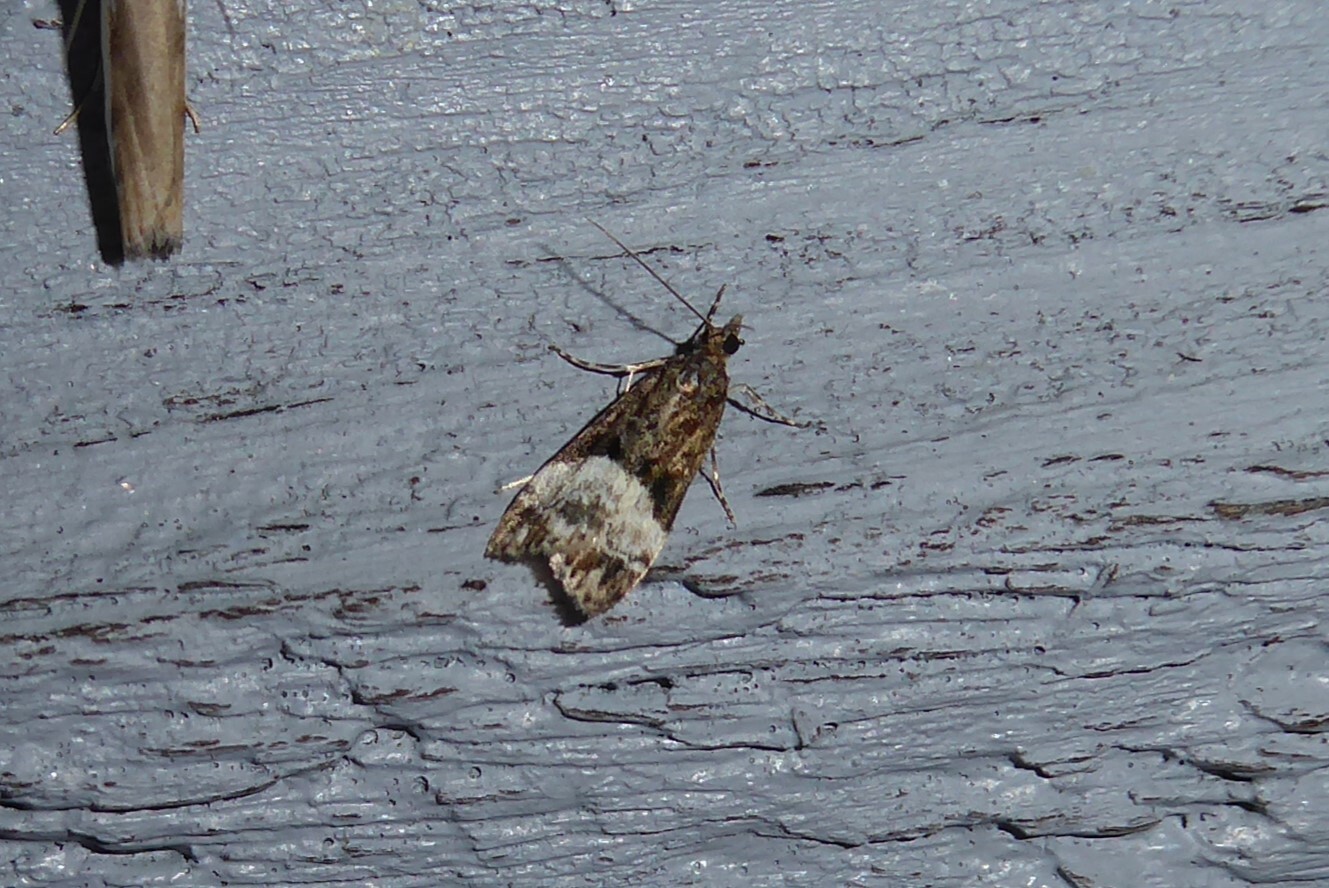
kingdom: Animalia
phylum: Arthropoda
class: Insecta
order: Lepidoptera
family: Crambidae
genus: Scoparia
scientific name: Scoparia minusculalis
